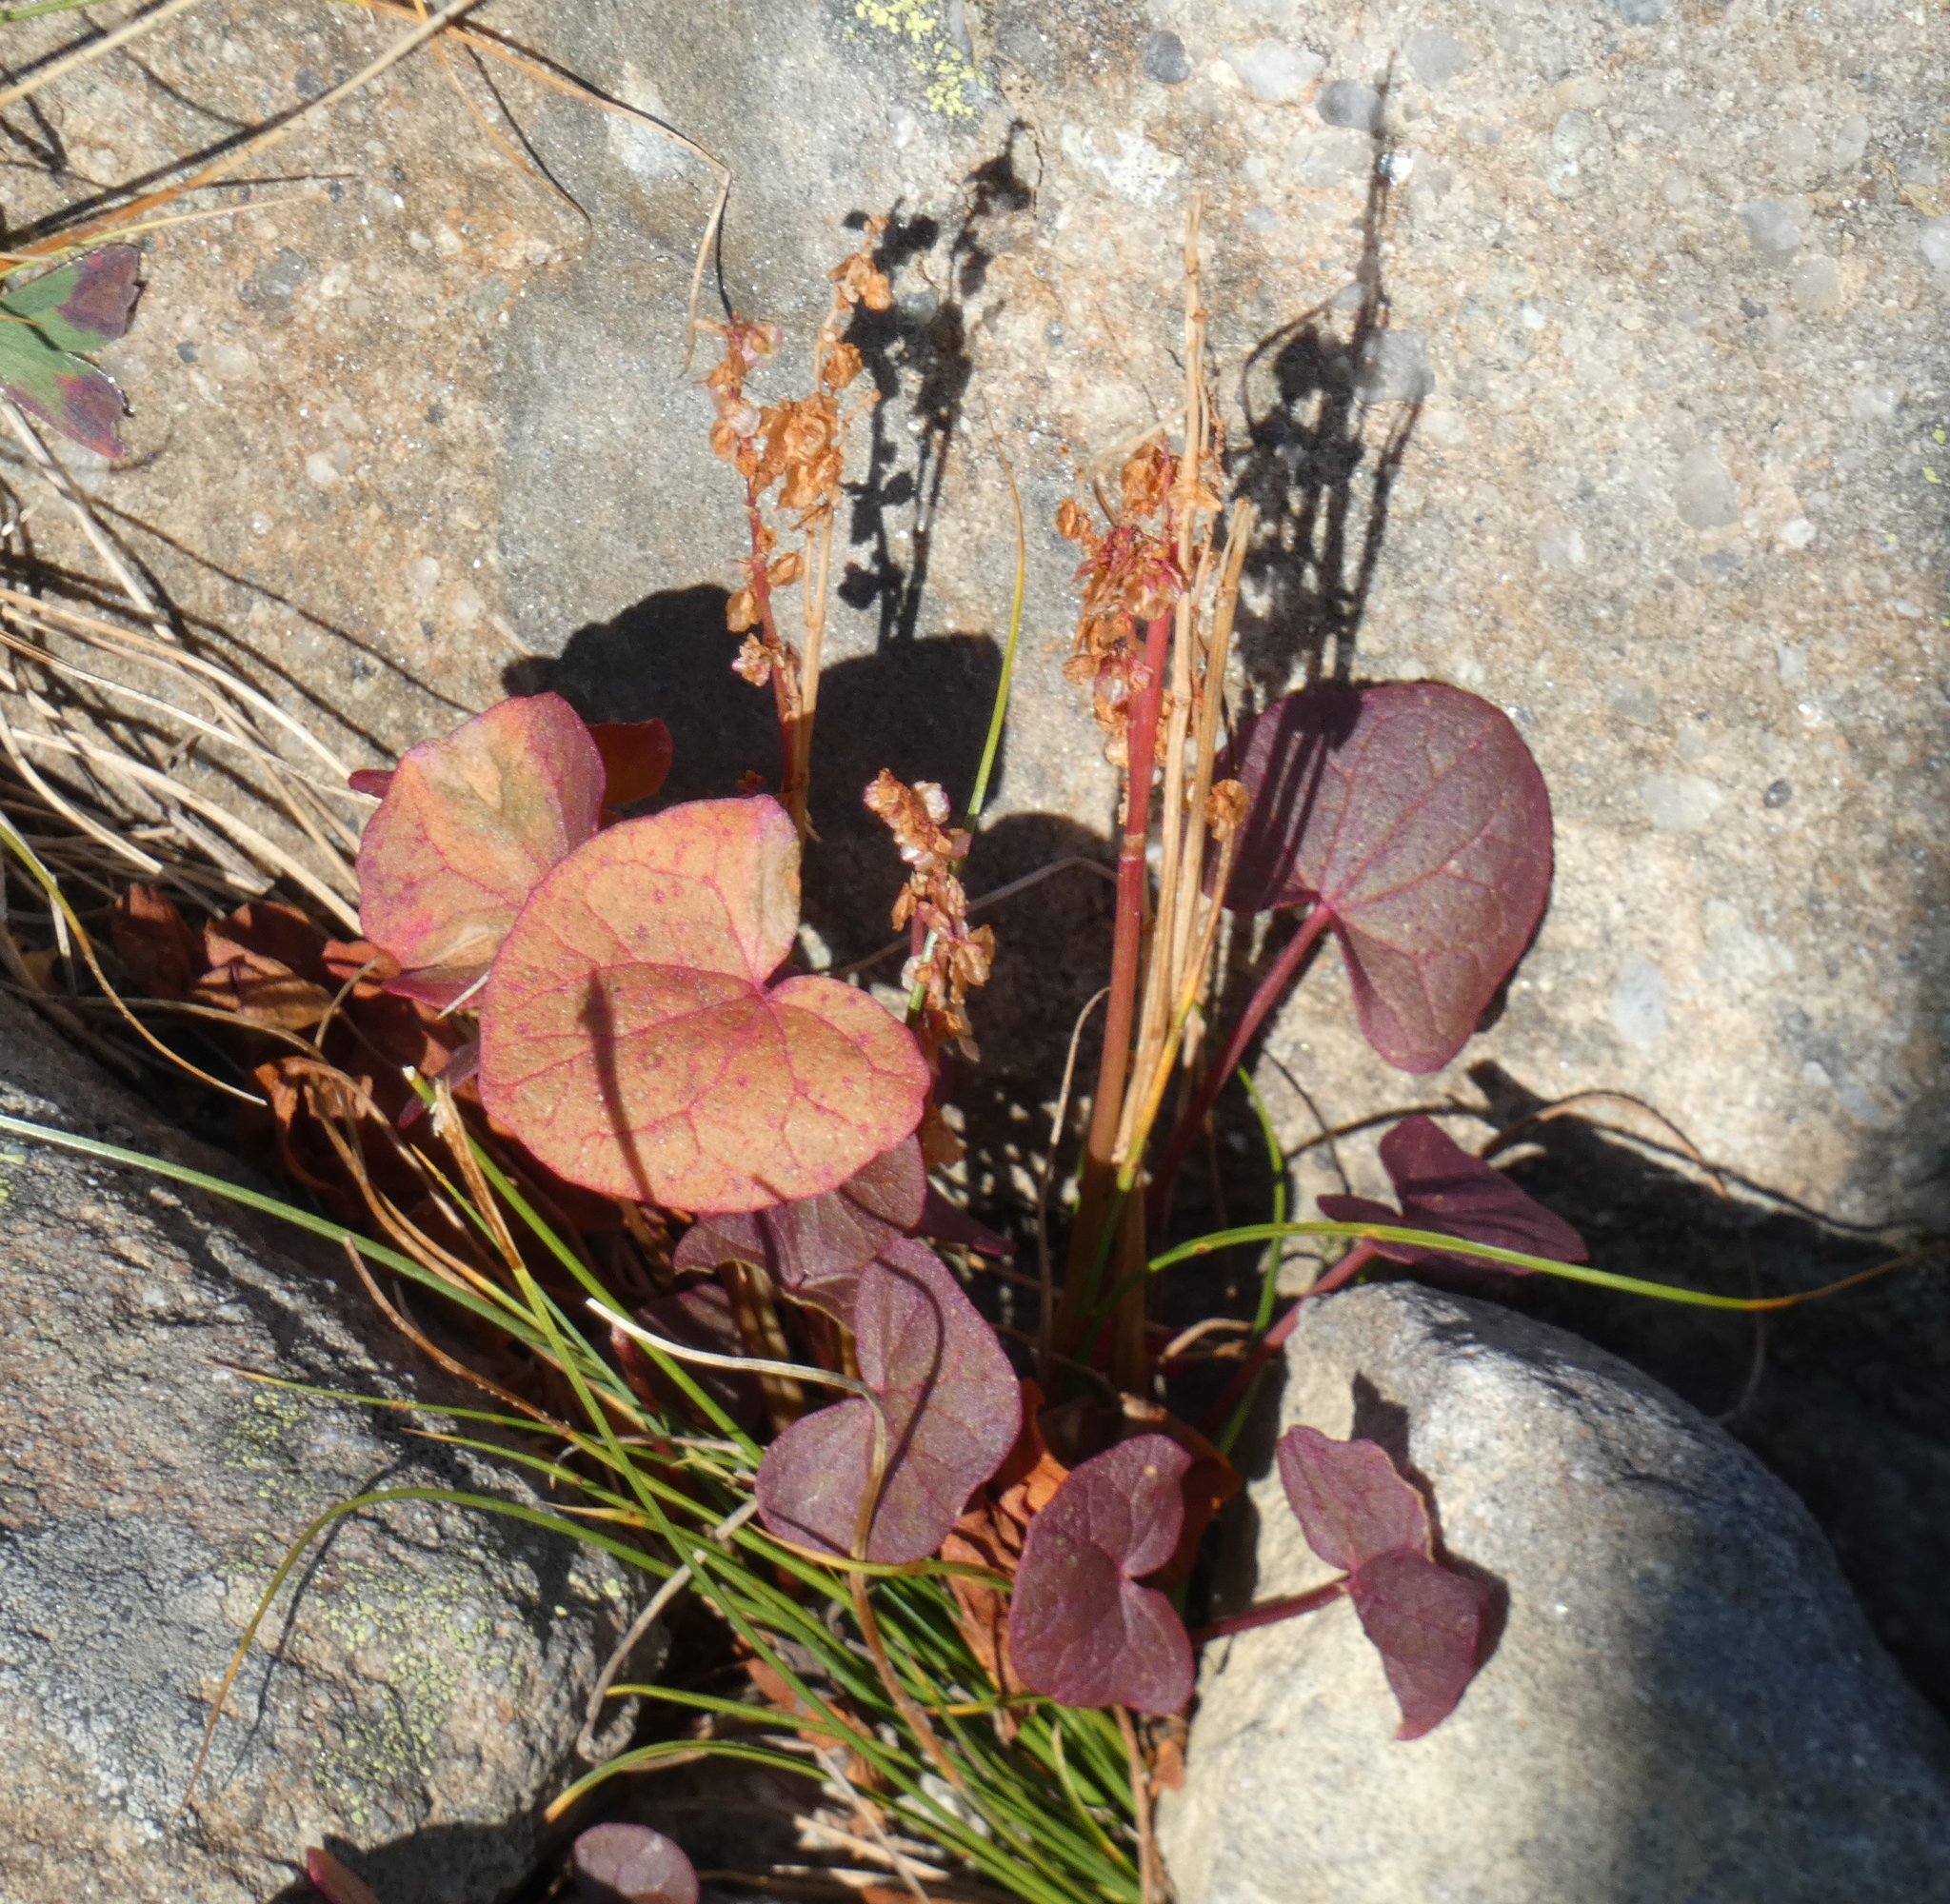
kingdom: Plantae
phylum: Tracheophyta
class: Magnoliopsida
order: Caryophyllales
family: Polygonaceae
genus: Oxyria
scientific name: Oxyria digyna
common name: Alpine mountain-sorrel
